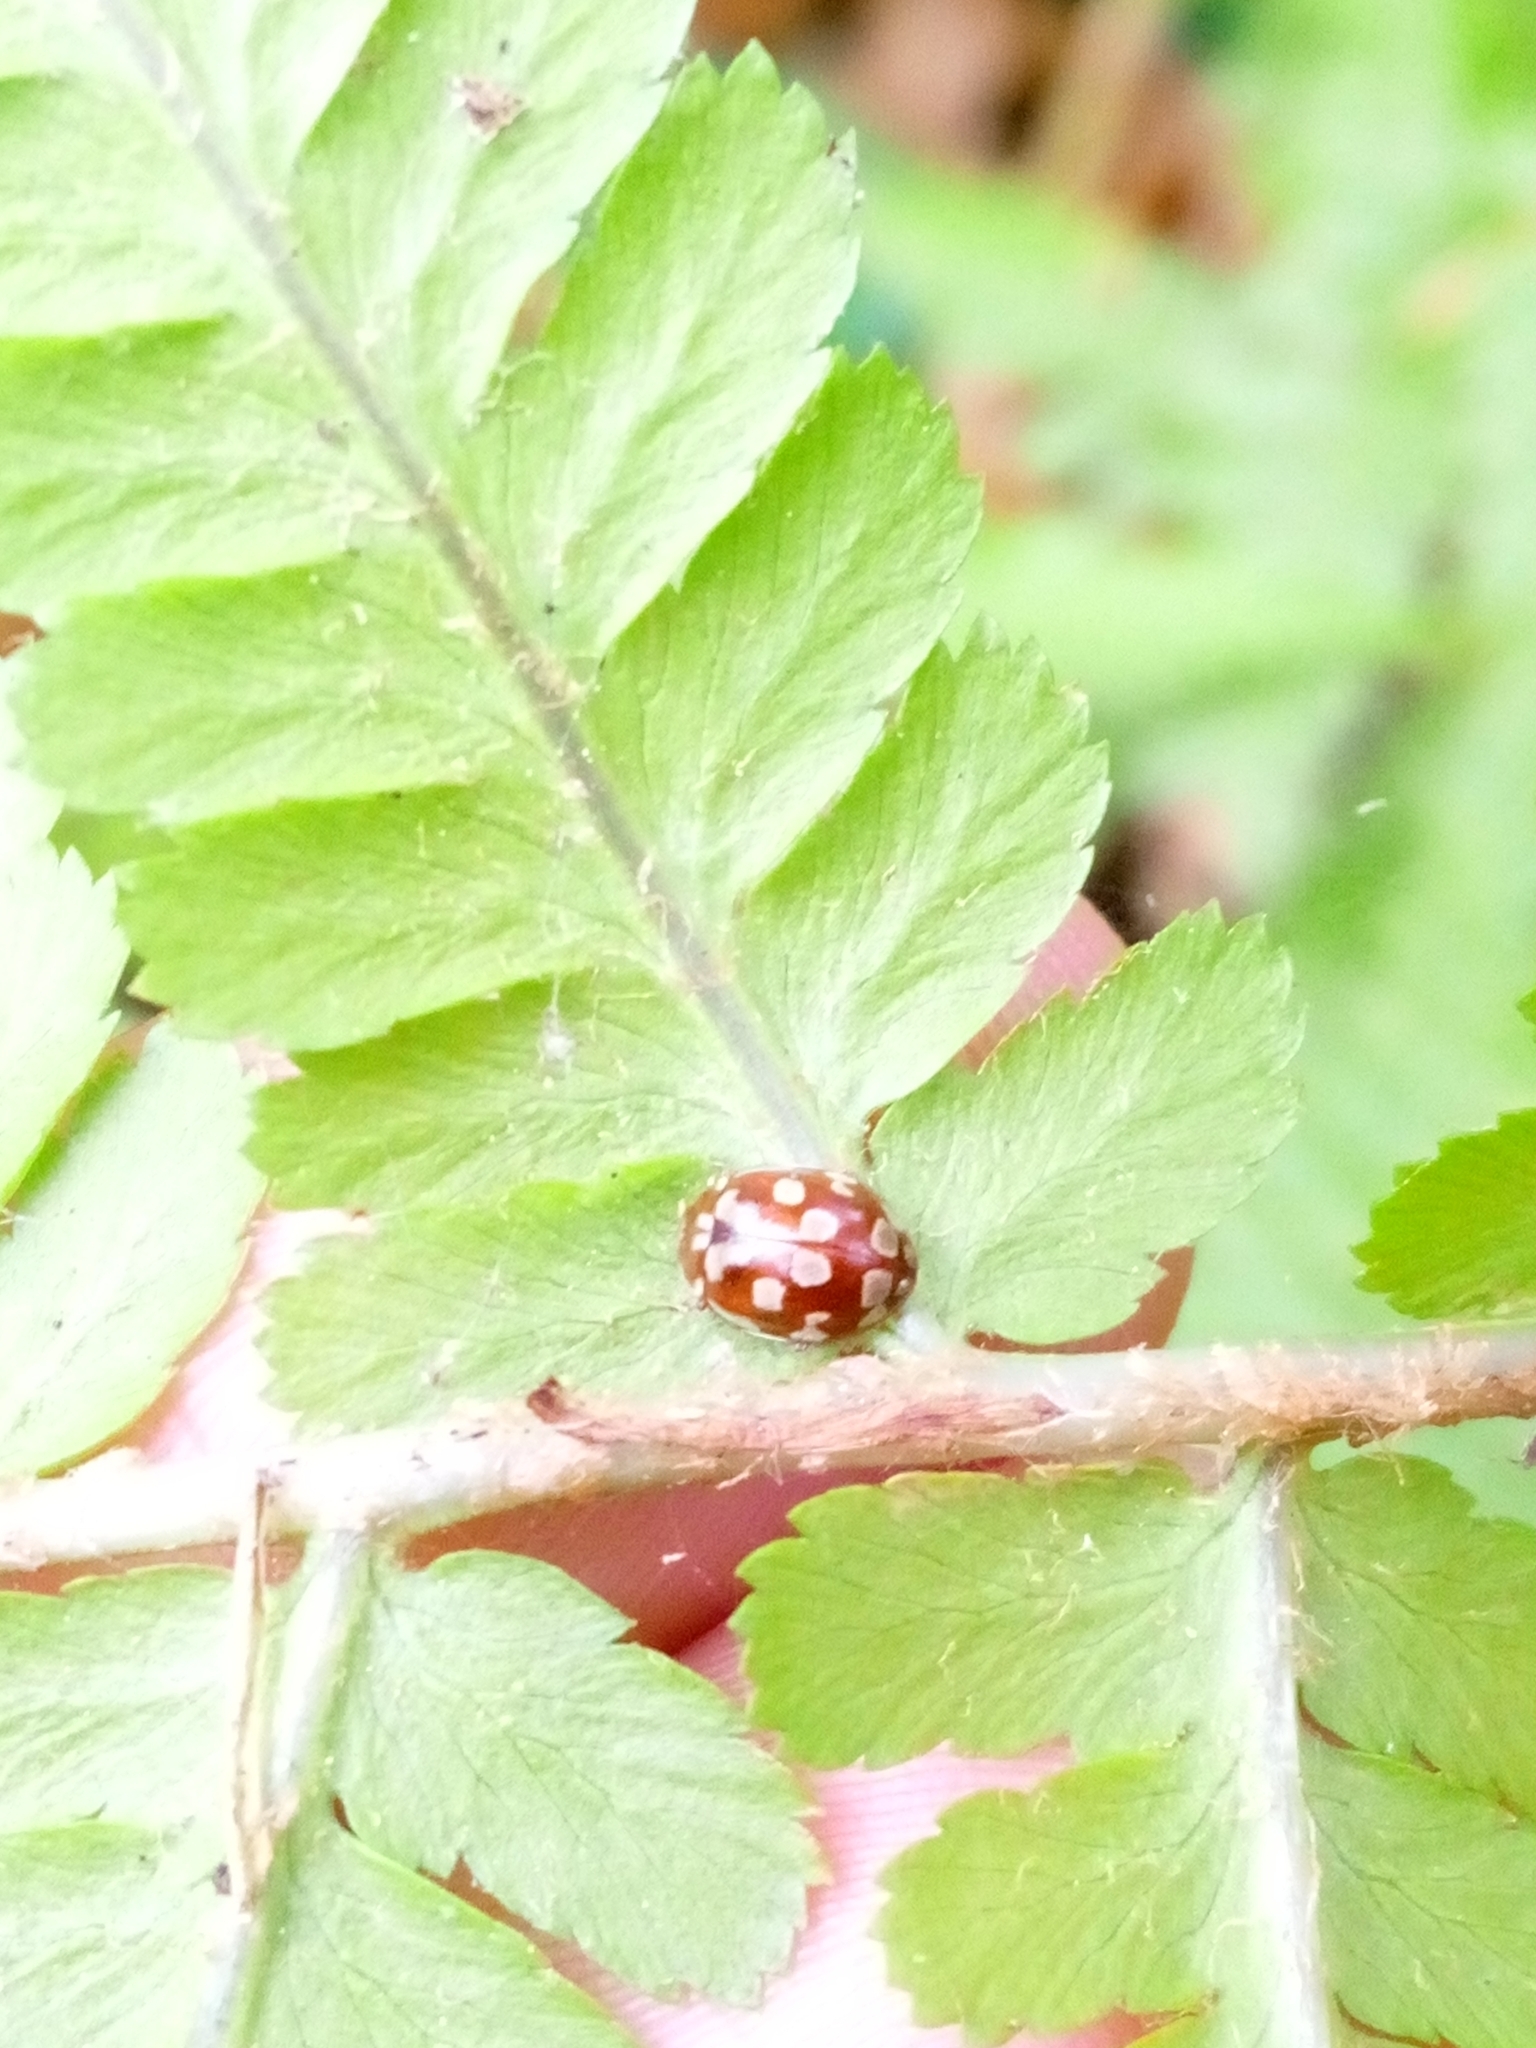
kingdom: Animalia
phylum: Arthropoda
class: Insecta
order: Coleoptera
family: Coccinellidae
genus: Myrrha
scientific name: Myrrha octodecimguttata
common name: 18-spot ladybird
